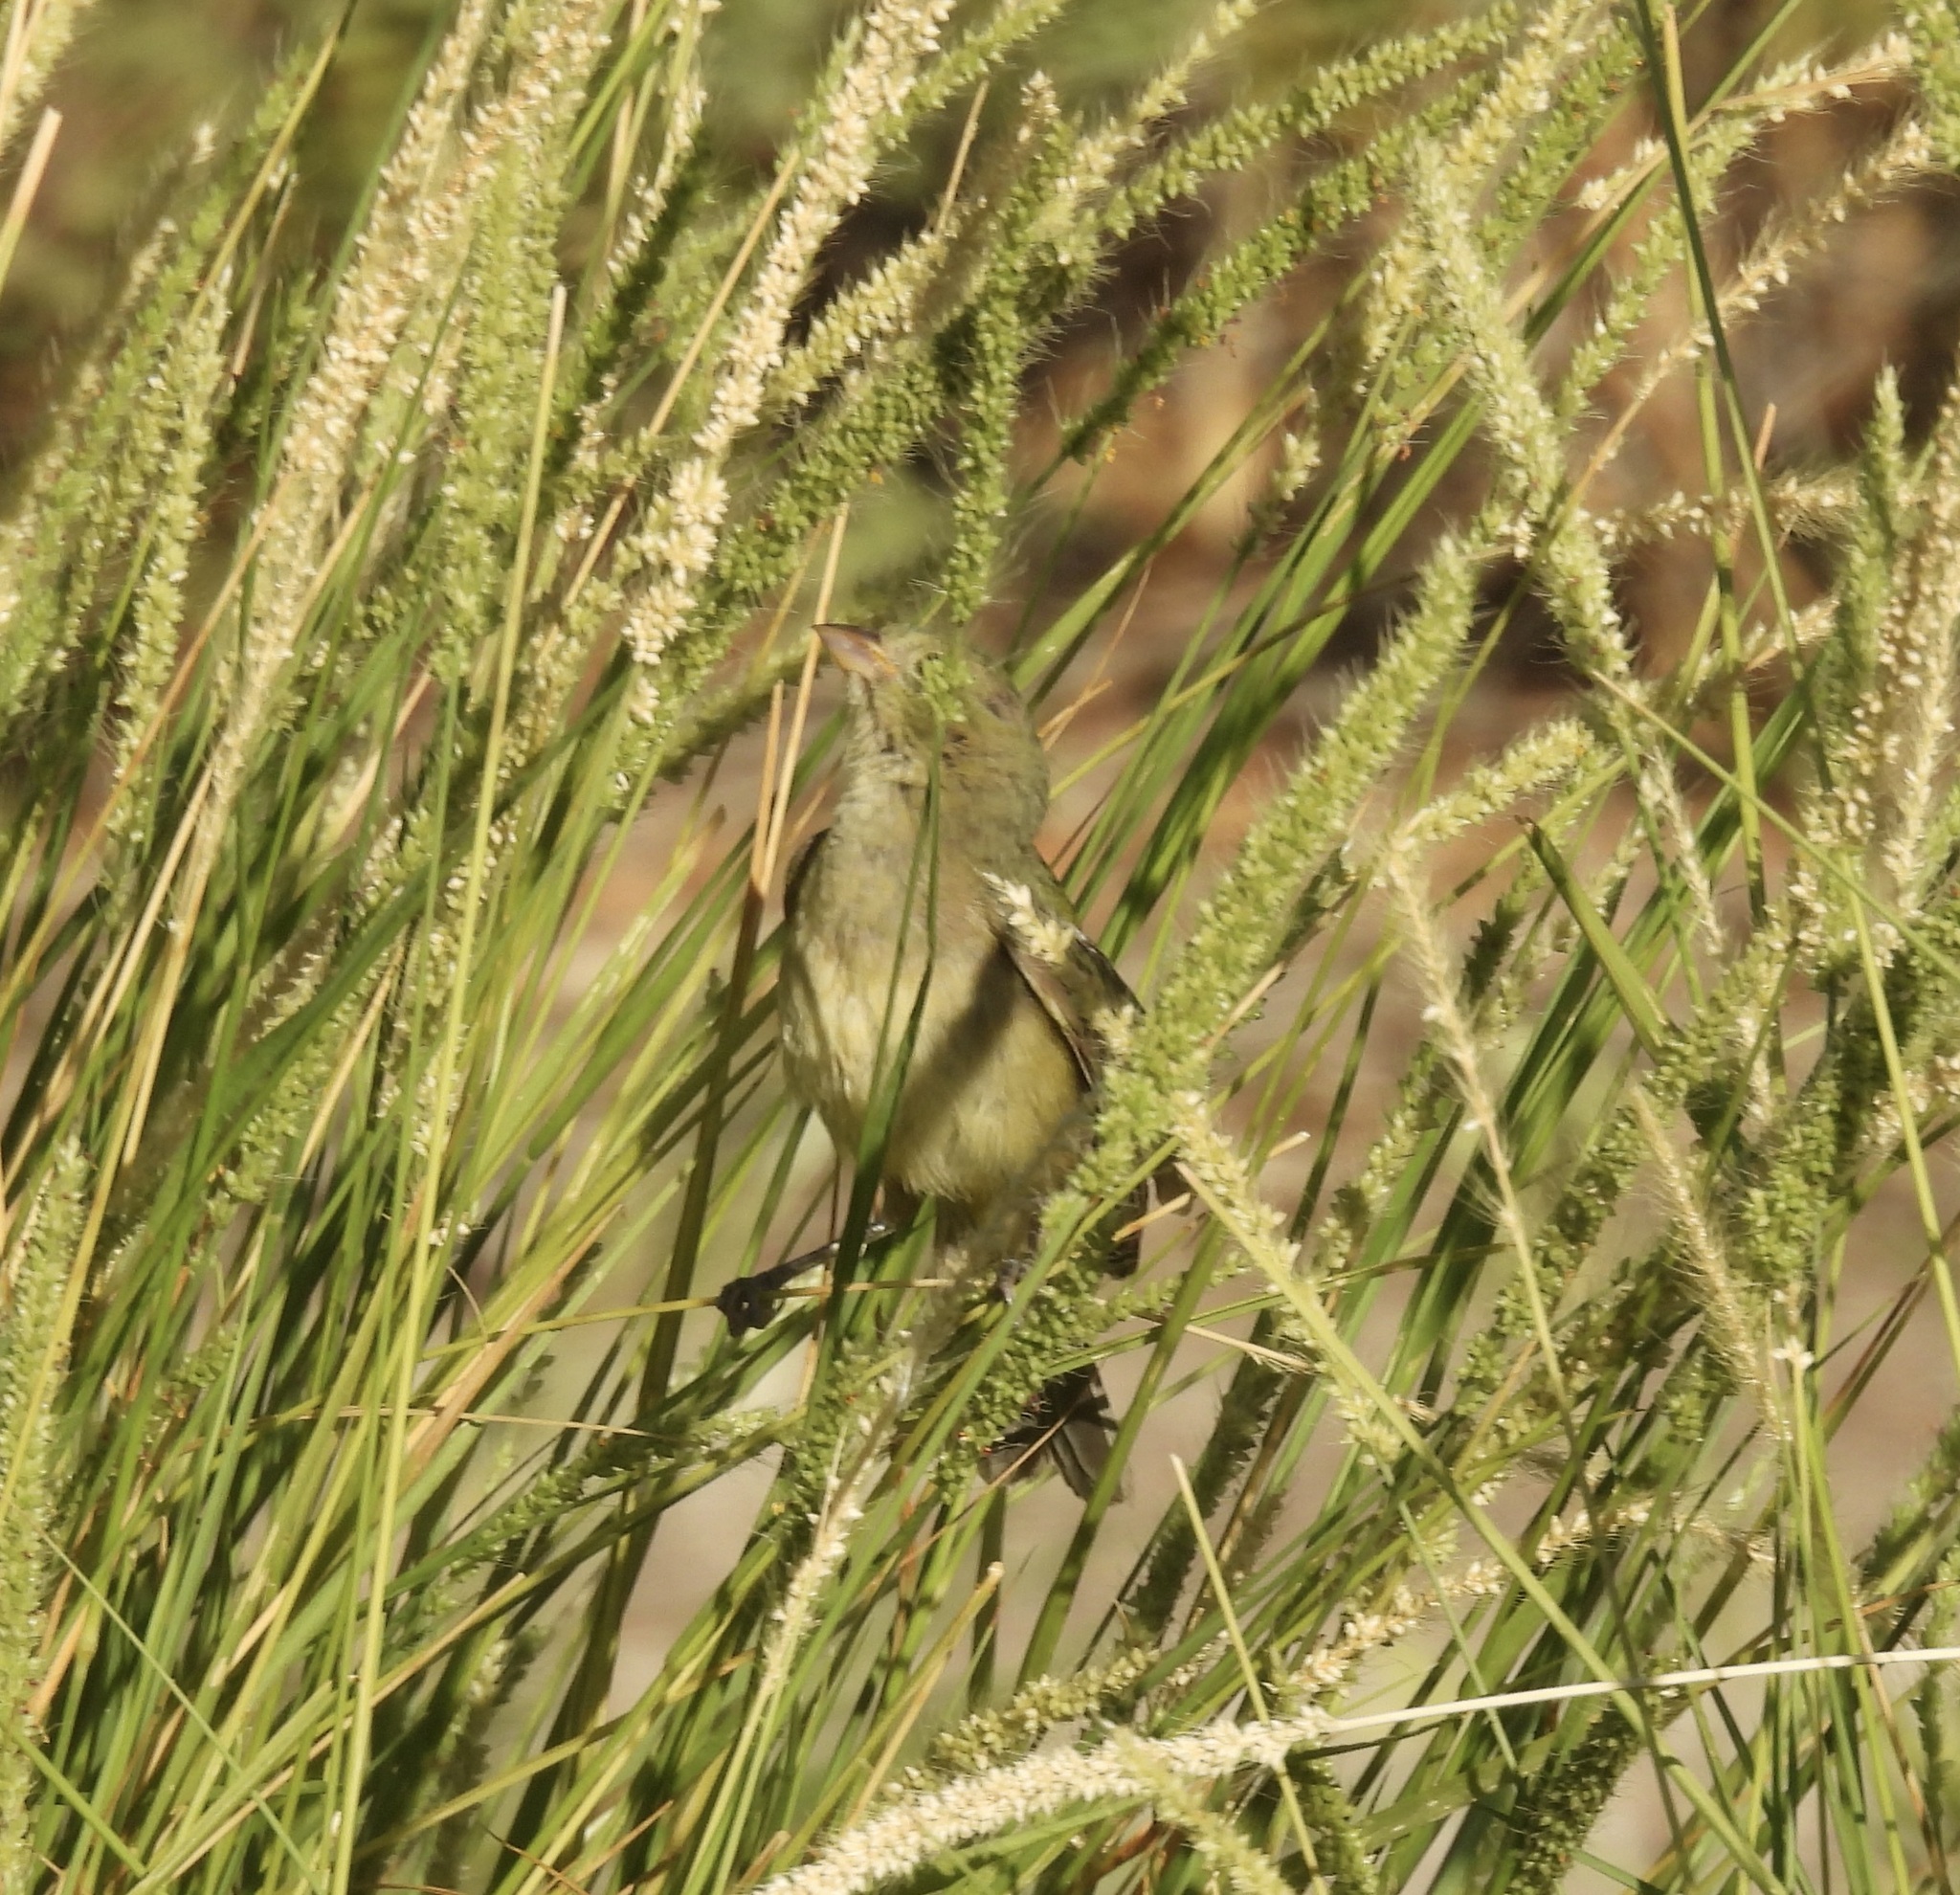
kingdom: Animalia
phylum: Chordata
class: Aves
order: Passeriformes
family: Cardinalidae
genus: Passerina
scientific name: Passerina ciris
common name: Painted bunting
